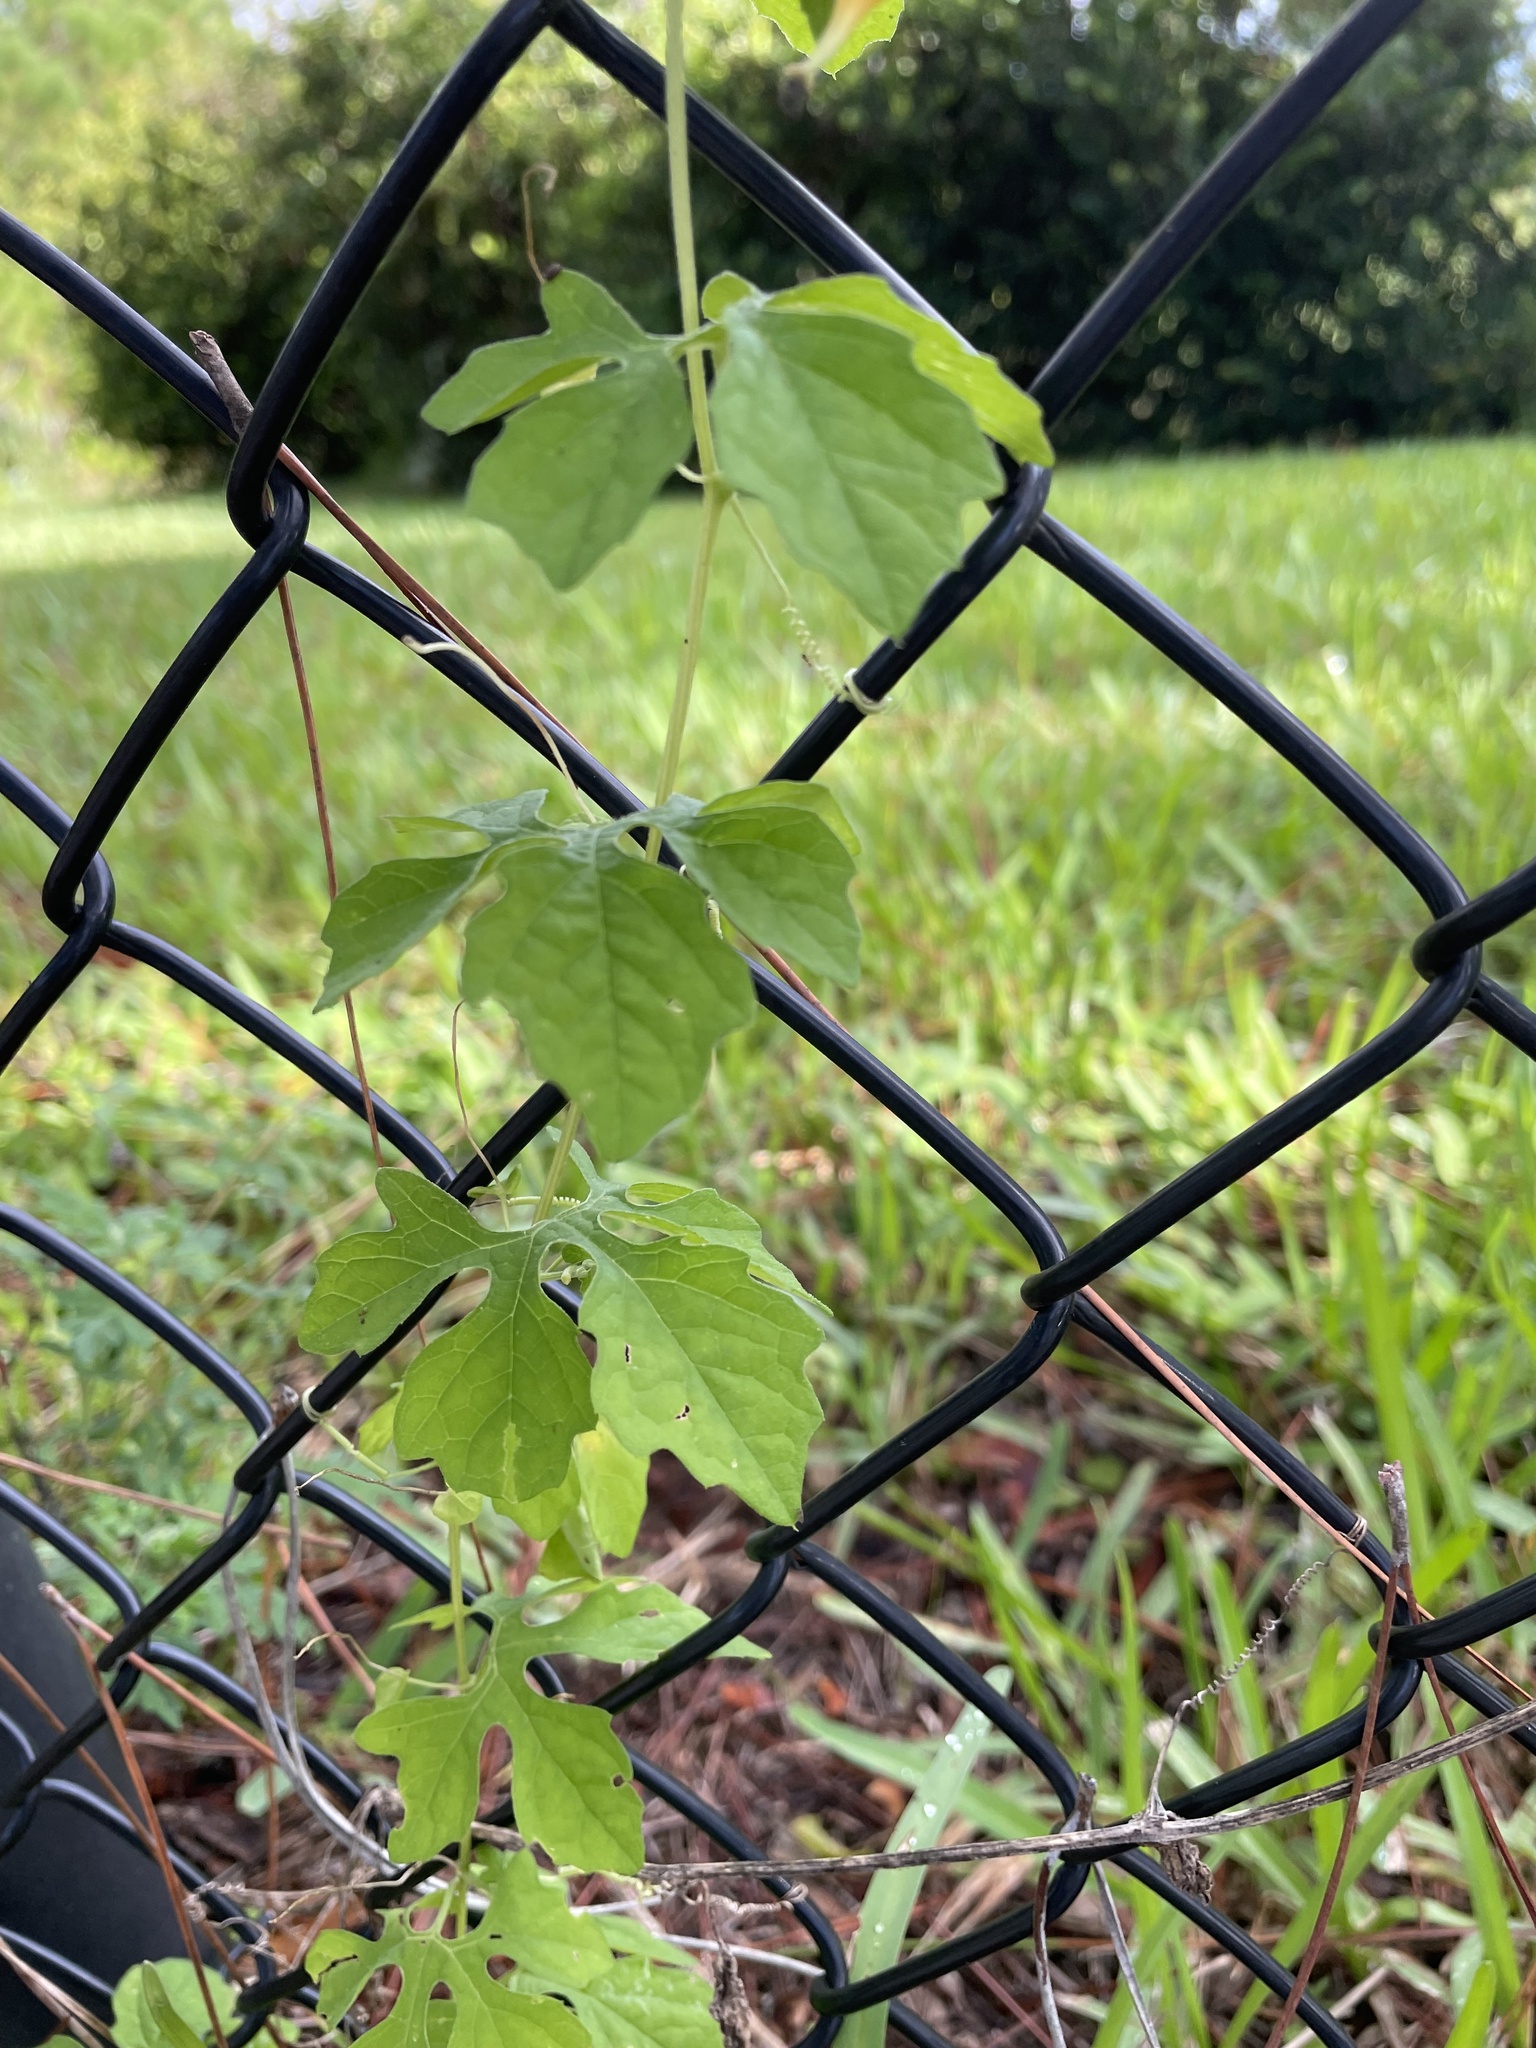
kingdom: Plantae
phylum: Tracheophyta
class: Magnoliopsida
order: Cucurbitales
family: Cucurbitaceae
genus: Momordica
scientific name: Momordica charantia
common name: Balsampear
